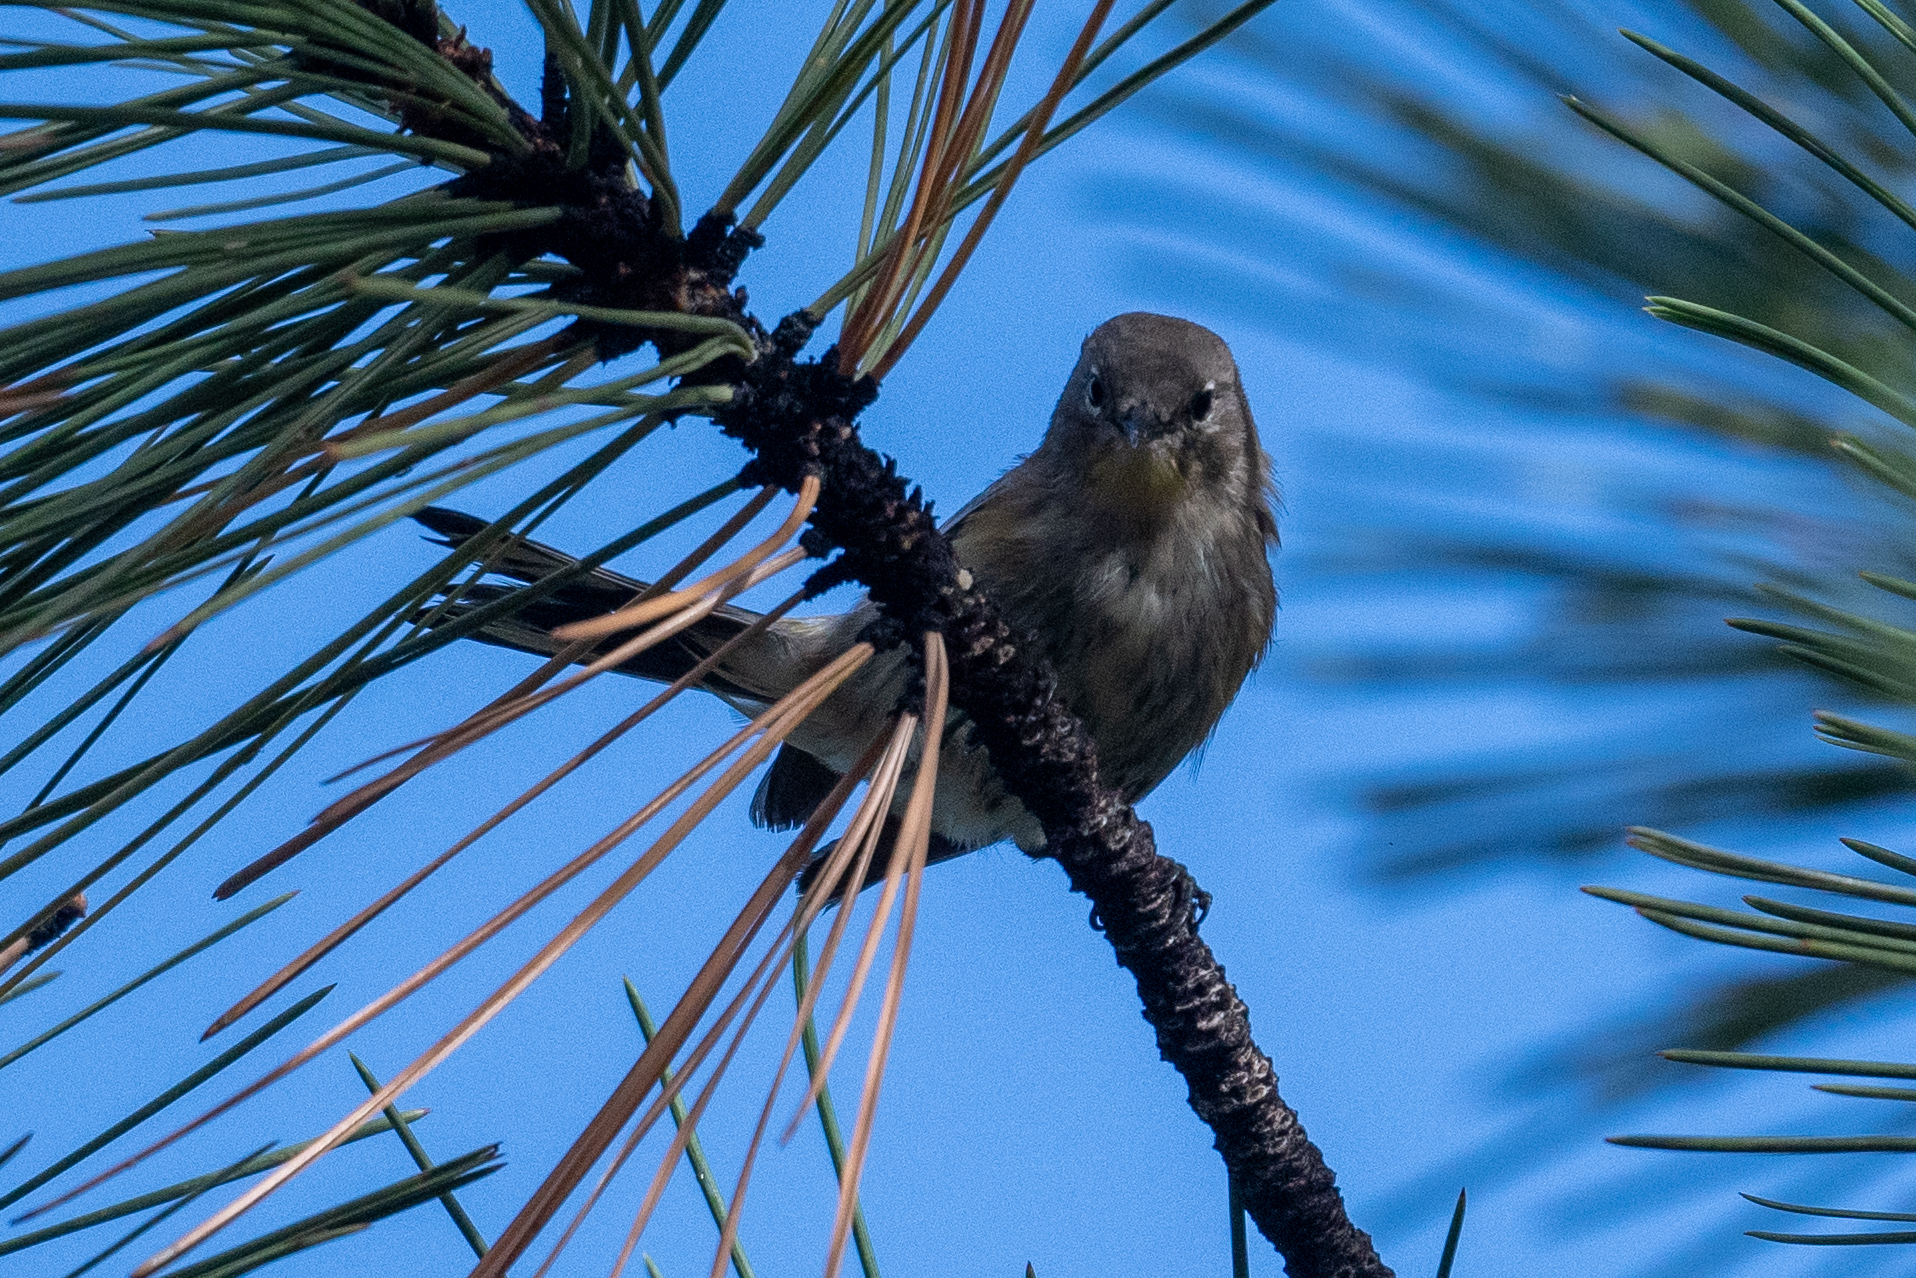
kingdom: Animalia
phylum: Chordata
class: Aves
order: Passeriformes
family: Parulidae
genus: Setophaga
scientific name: Setophaga coronata
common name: Myrtle warbler
